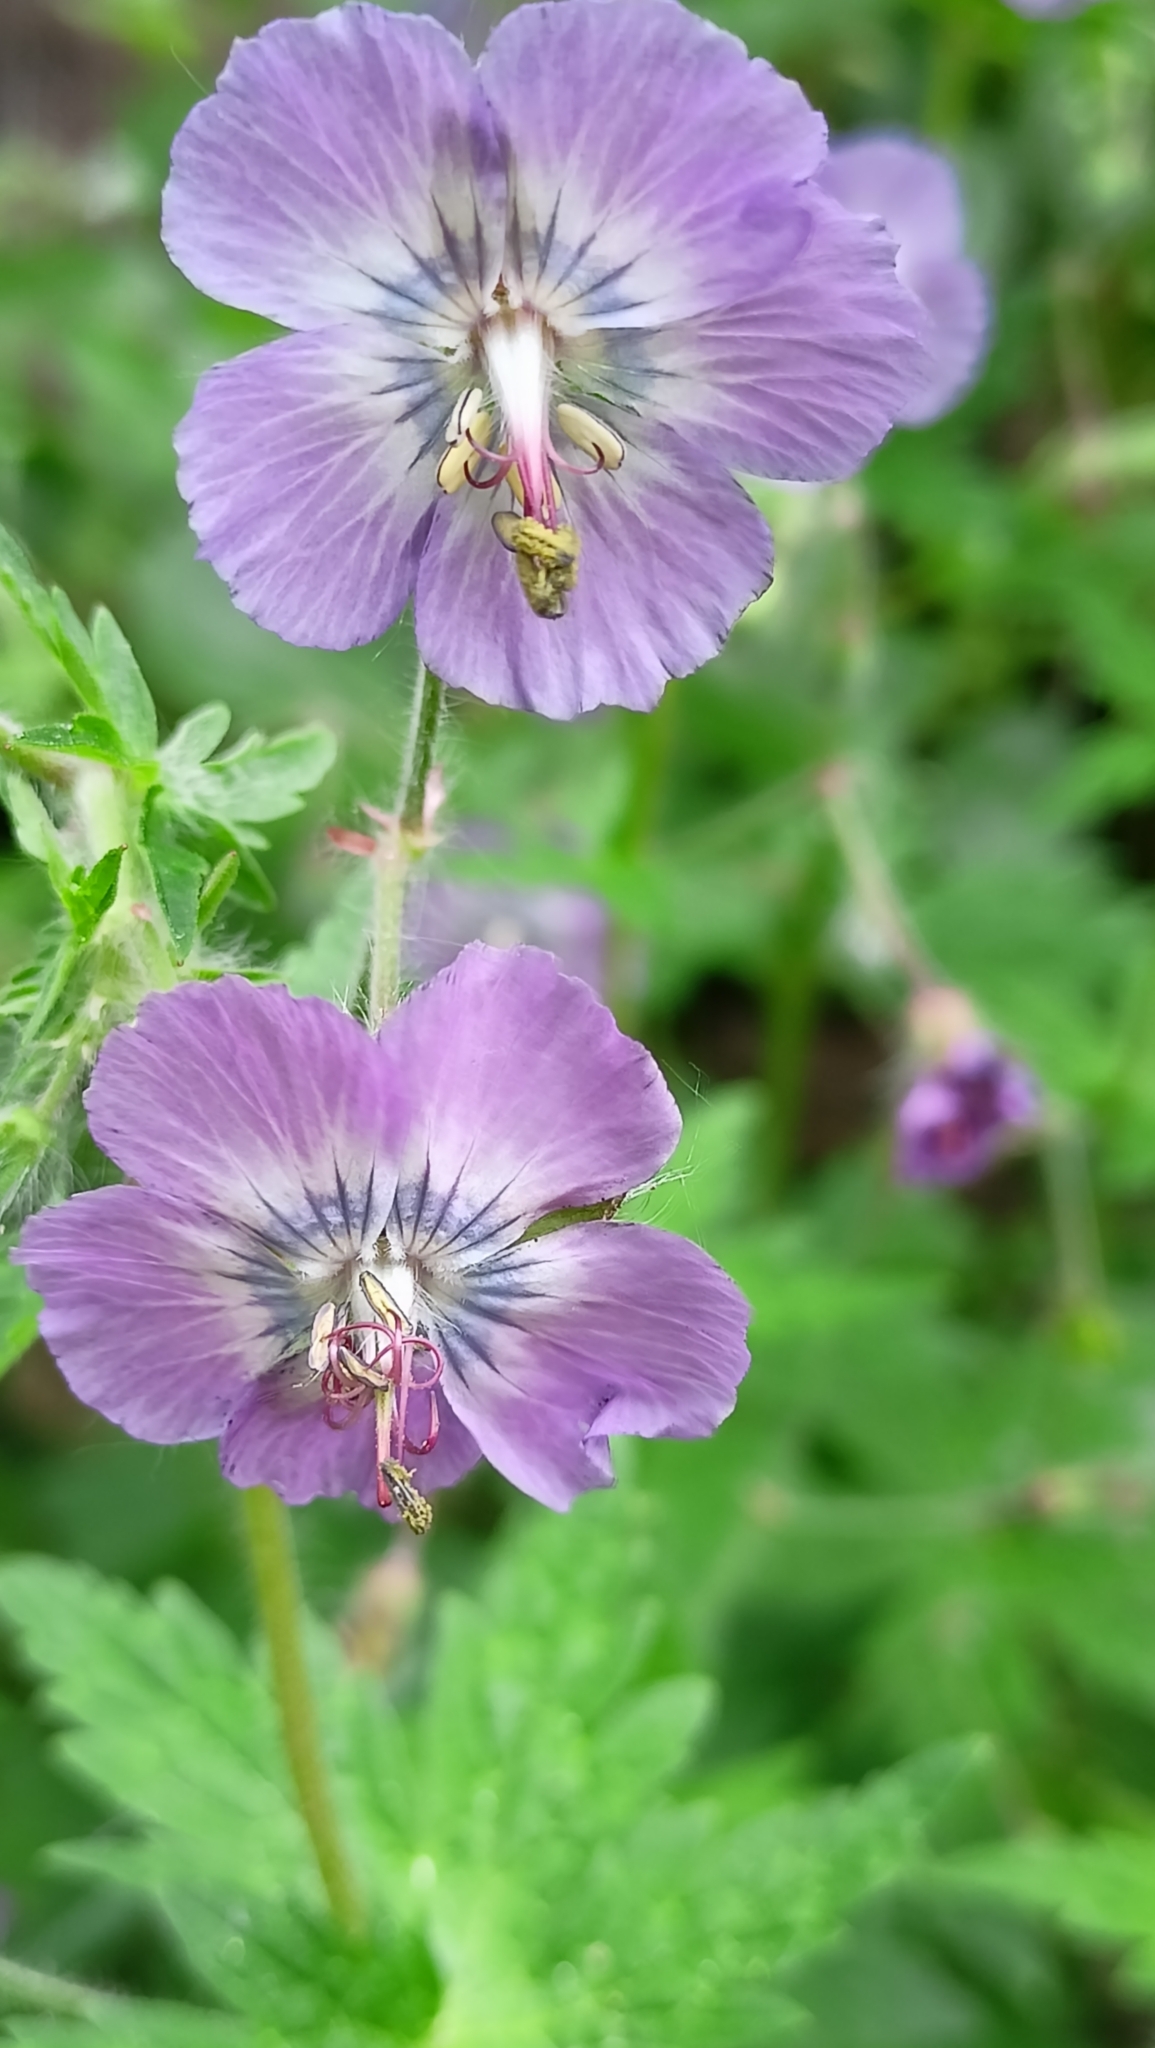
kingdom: Plantae
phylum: Tracheophyta
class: Magnoliopsida
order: Geraniales
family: Geraniaceae
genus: Geranium
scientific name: Geranium phaeum
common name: Dusky crane's-bill
